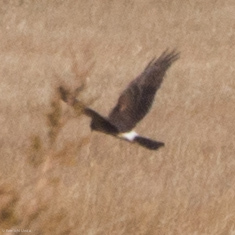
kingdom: Animalia
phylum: Chordata
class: Aves
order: Accipitriformes
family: Accipitridae
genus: Circus
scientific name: Circus cyaneus
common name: Hen harrier
